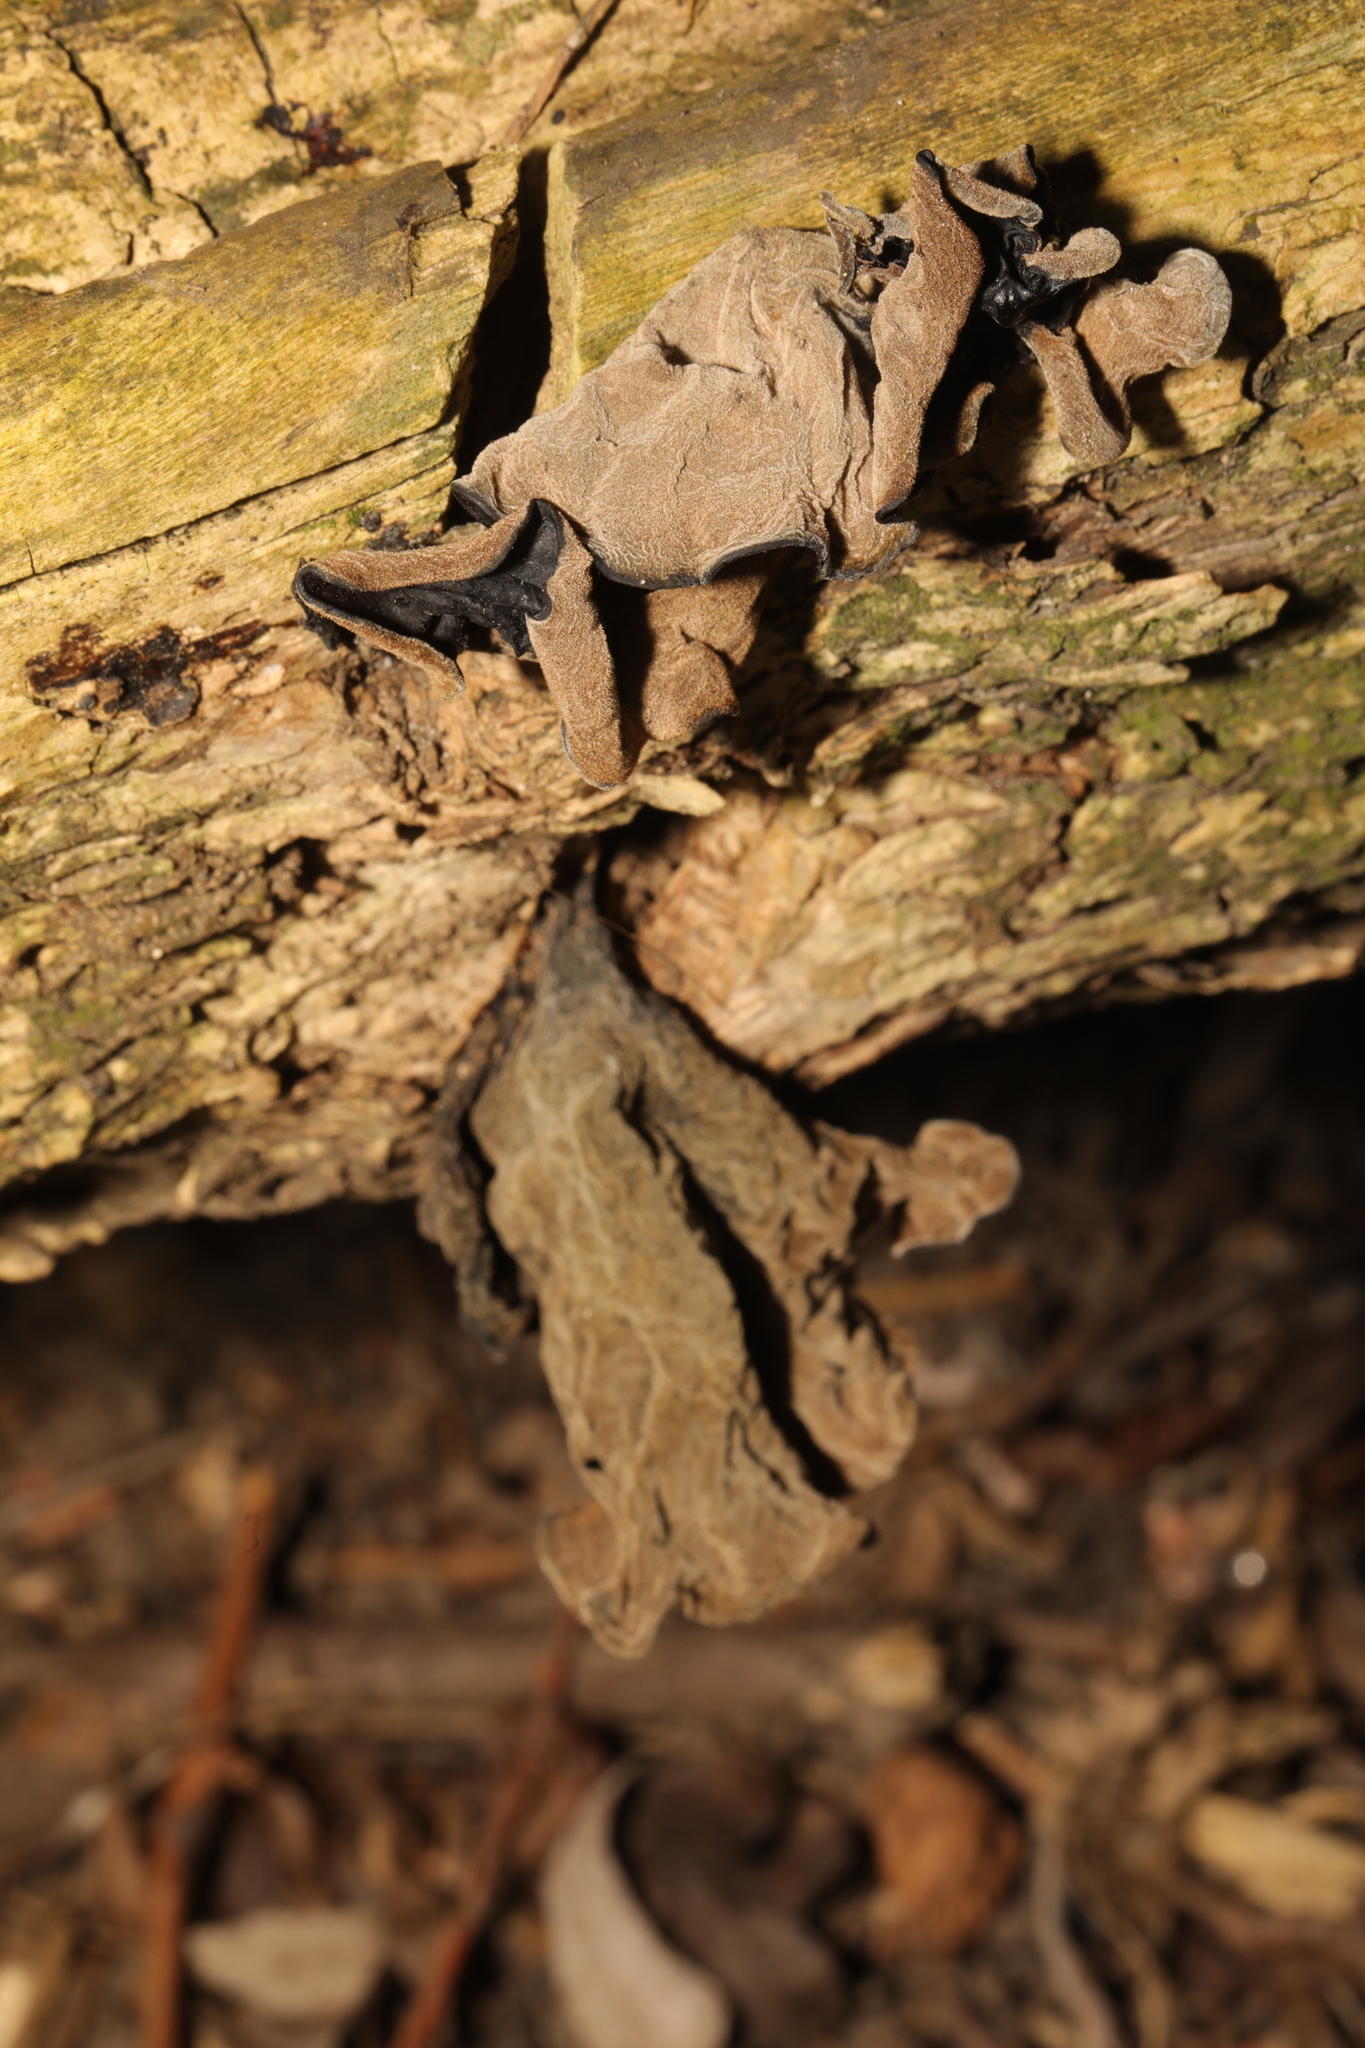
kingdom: Fungi
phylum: Basidiomycota
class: Agaricomycetes
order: Auriculariales
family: Auriculariaceae
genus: Auricularia
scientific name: Auricularia auricula-judae
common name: Jelly ear
